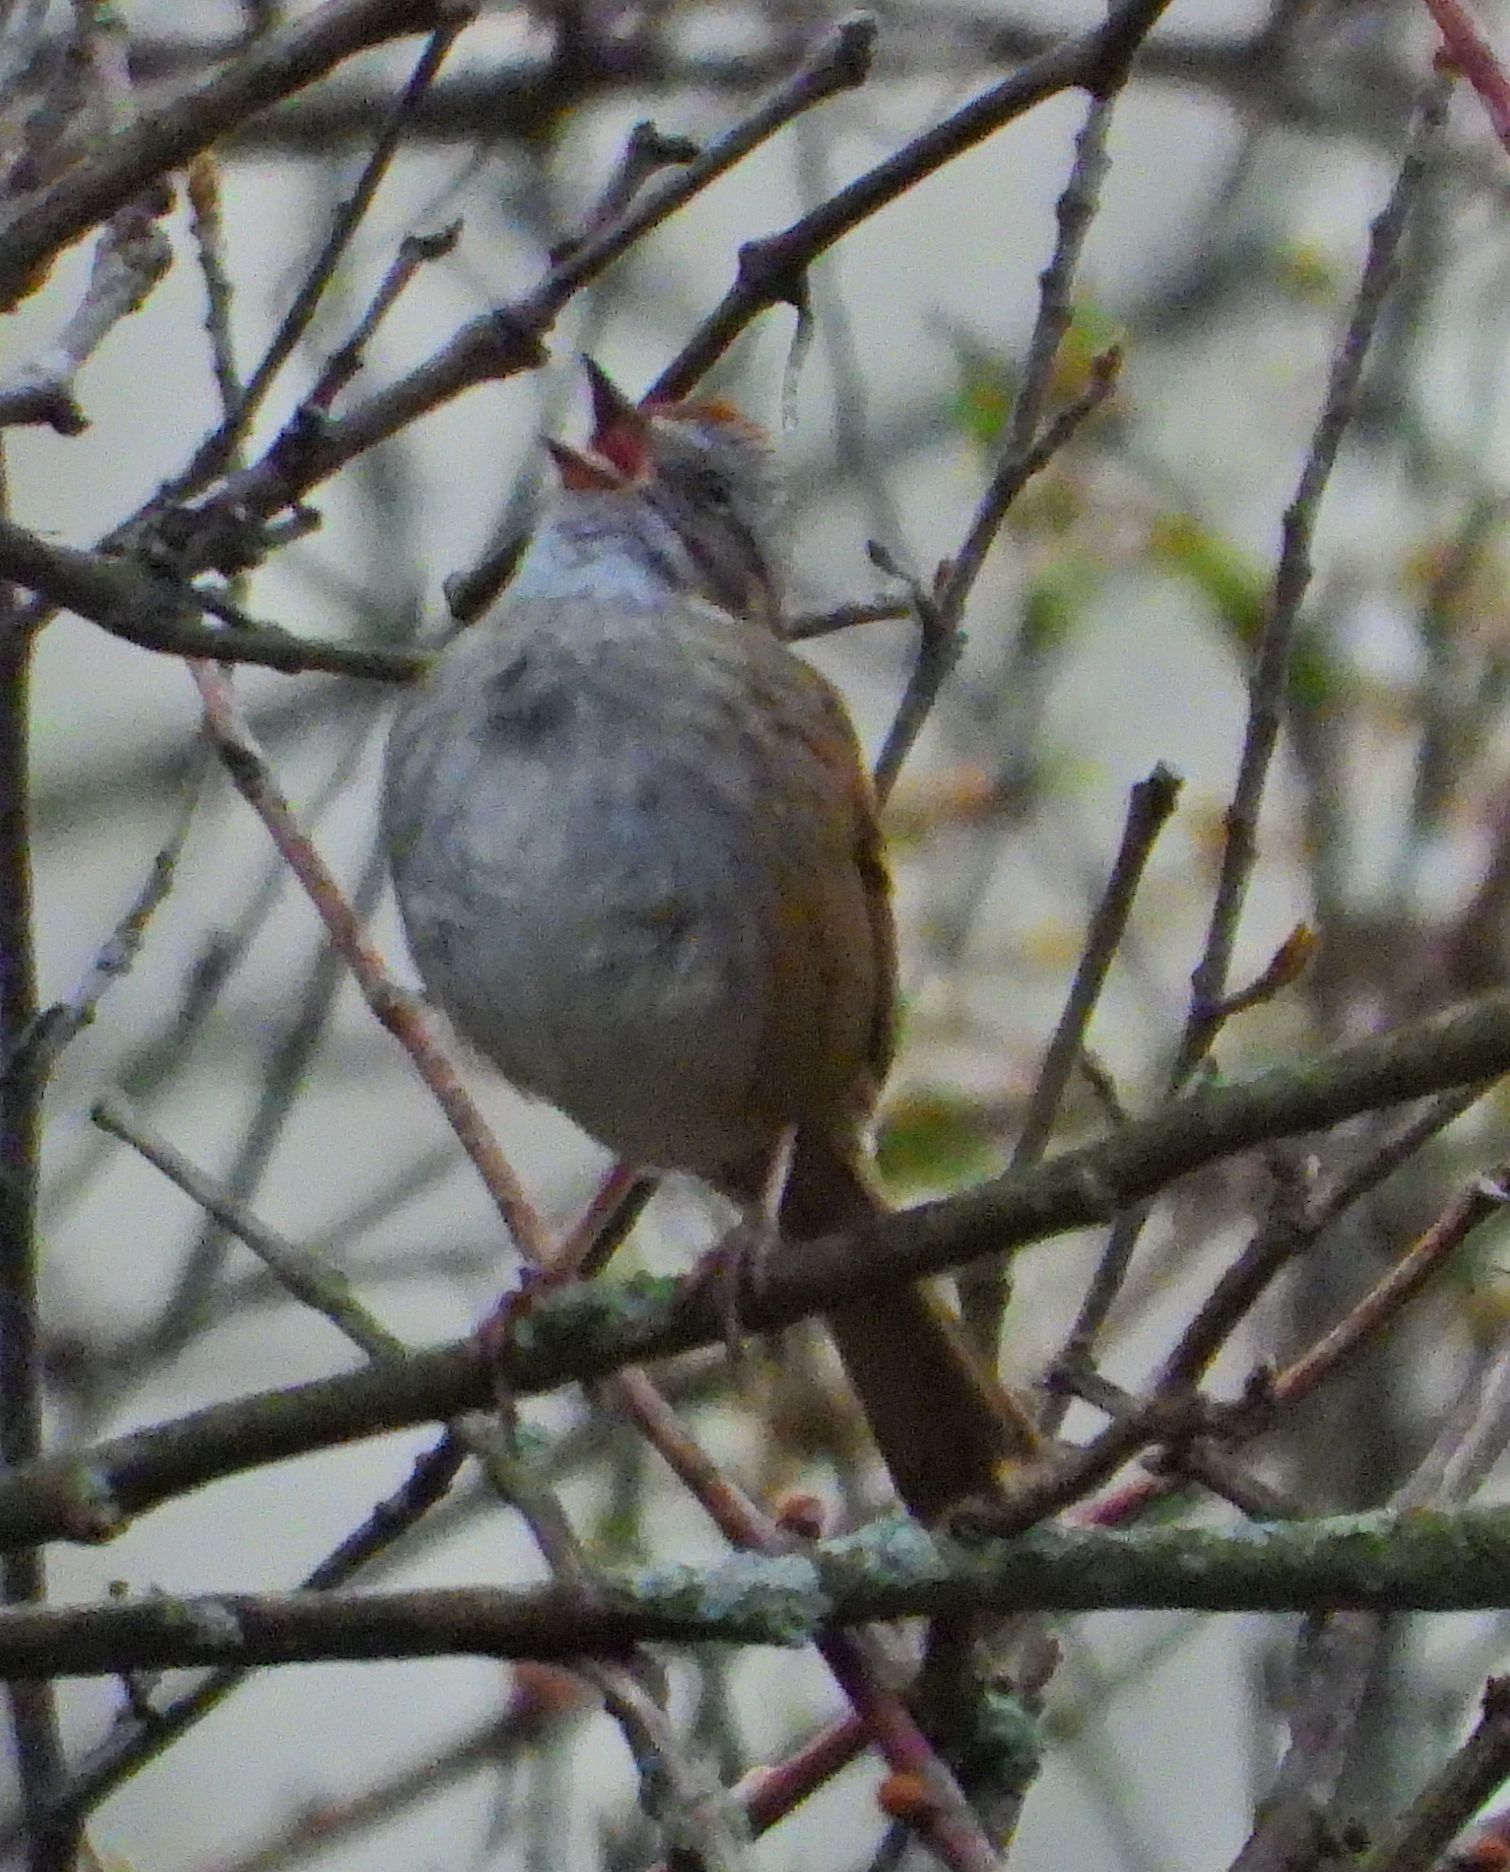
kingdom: Animalia
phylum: Chordata
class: Aves
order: Passeriformes
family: Passerellidae
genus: Melospiza
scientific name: Melospiza georgiana
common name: Swamp sparrow
